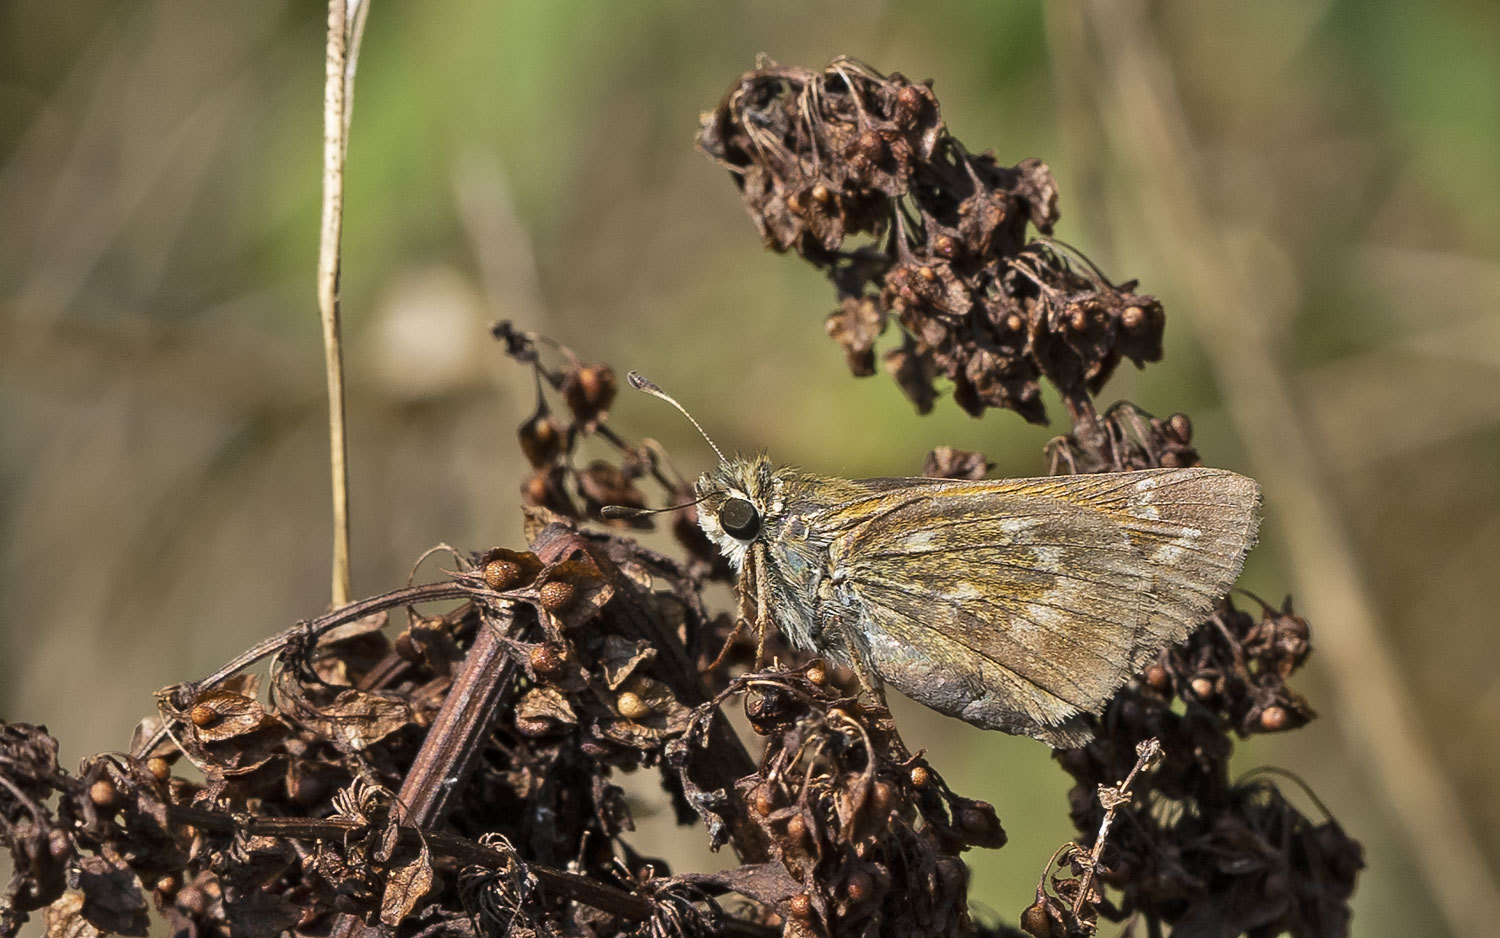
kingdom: Animalia
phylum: Arthropoda
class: Insecta
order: Lepidoptera
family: Hesperiidae
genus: Atalopedes
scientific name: Atalopedes
